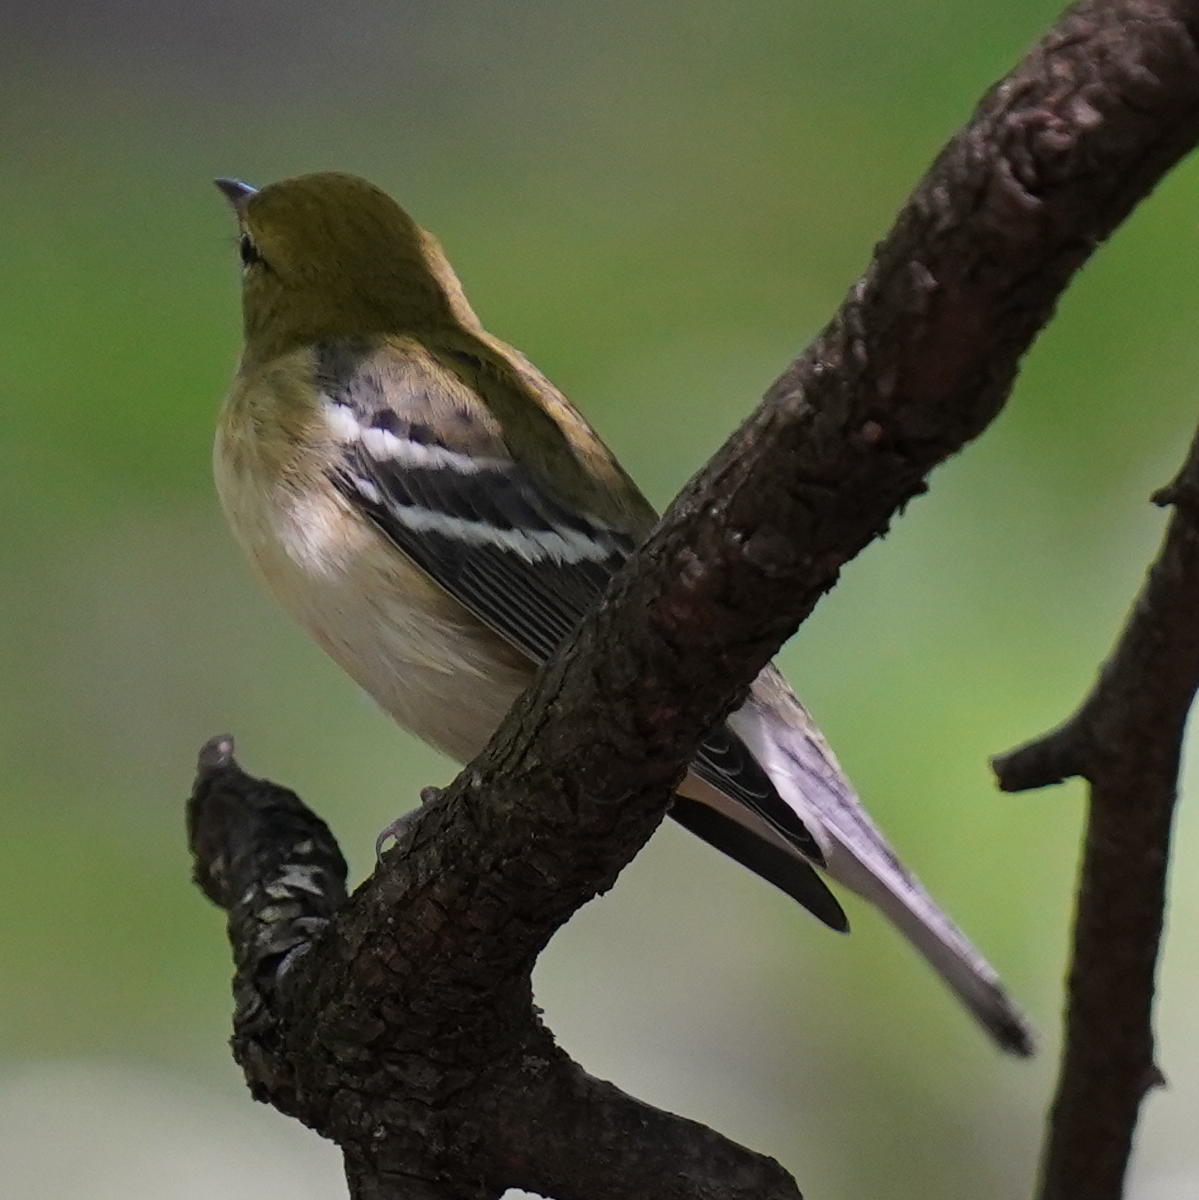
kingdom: Animalia
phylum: Chordata
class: Aves
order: Passeriformes
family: Parulidae
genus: Setophaga
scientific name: Setophaga castanea
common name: Bay-breasted warbler
